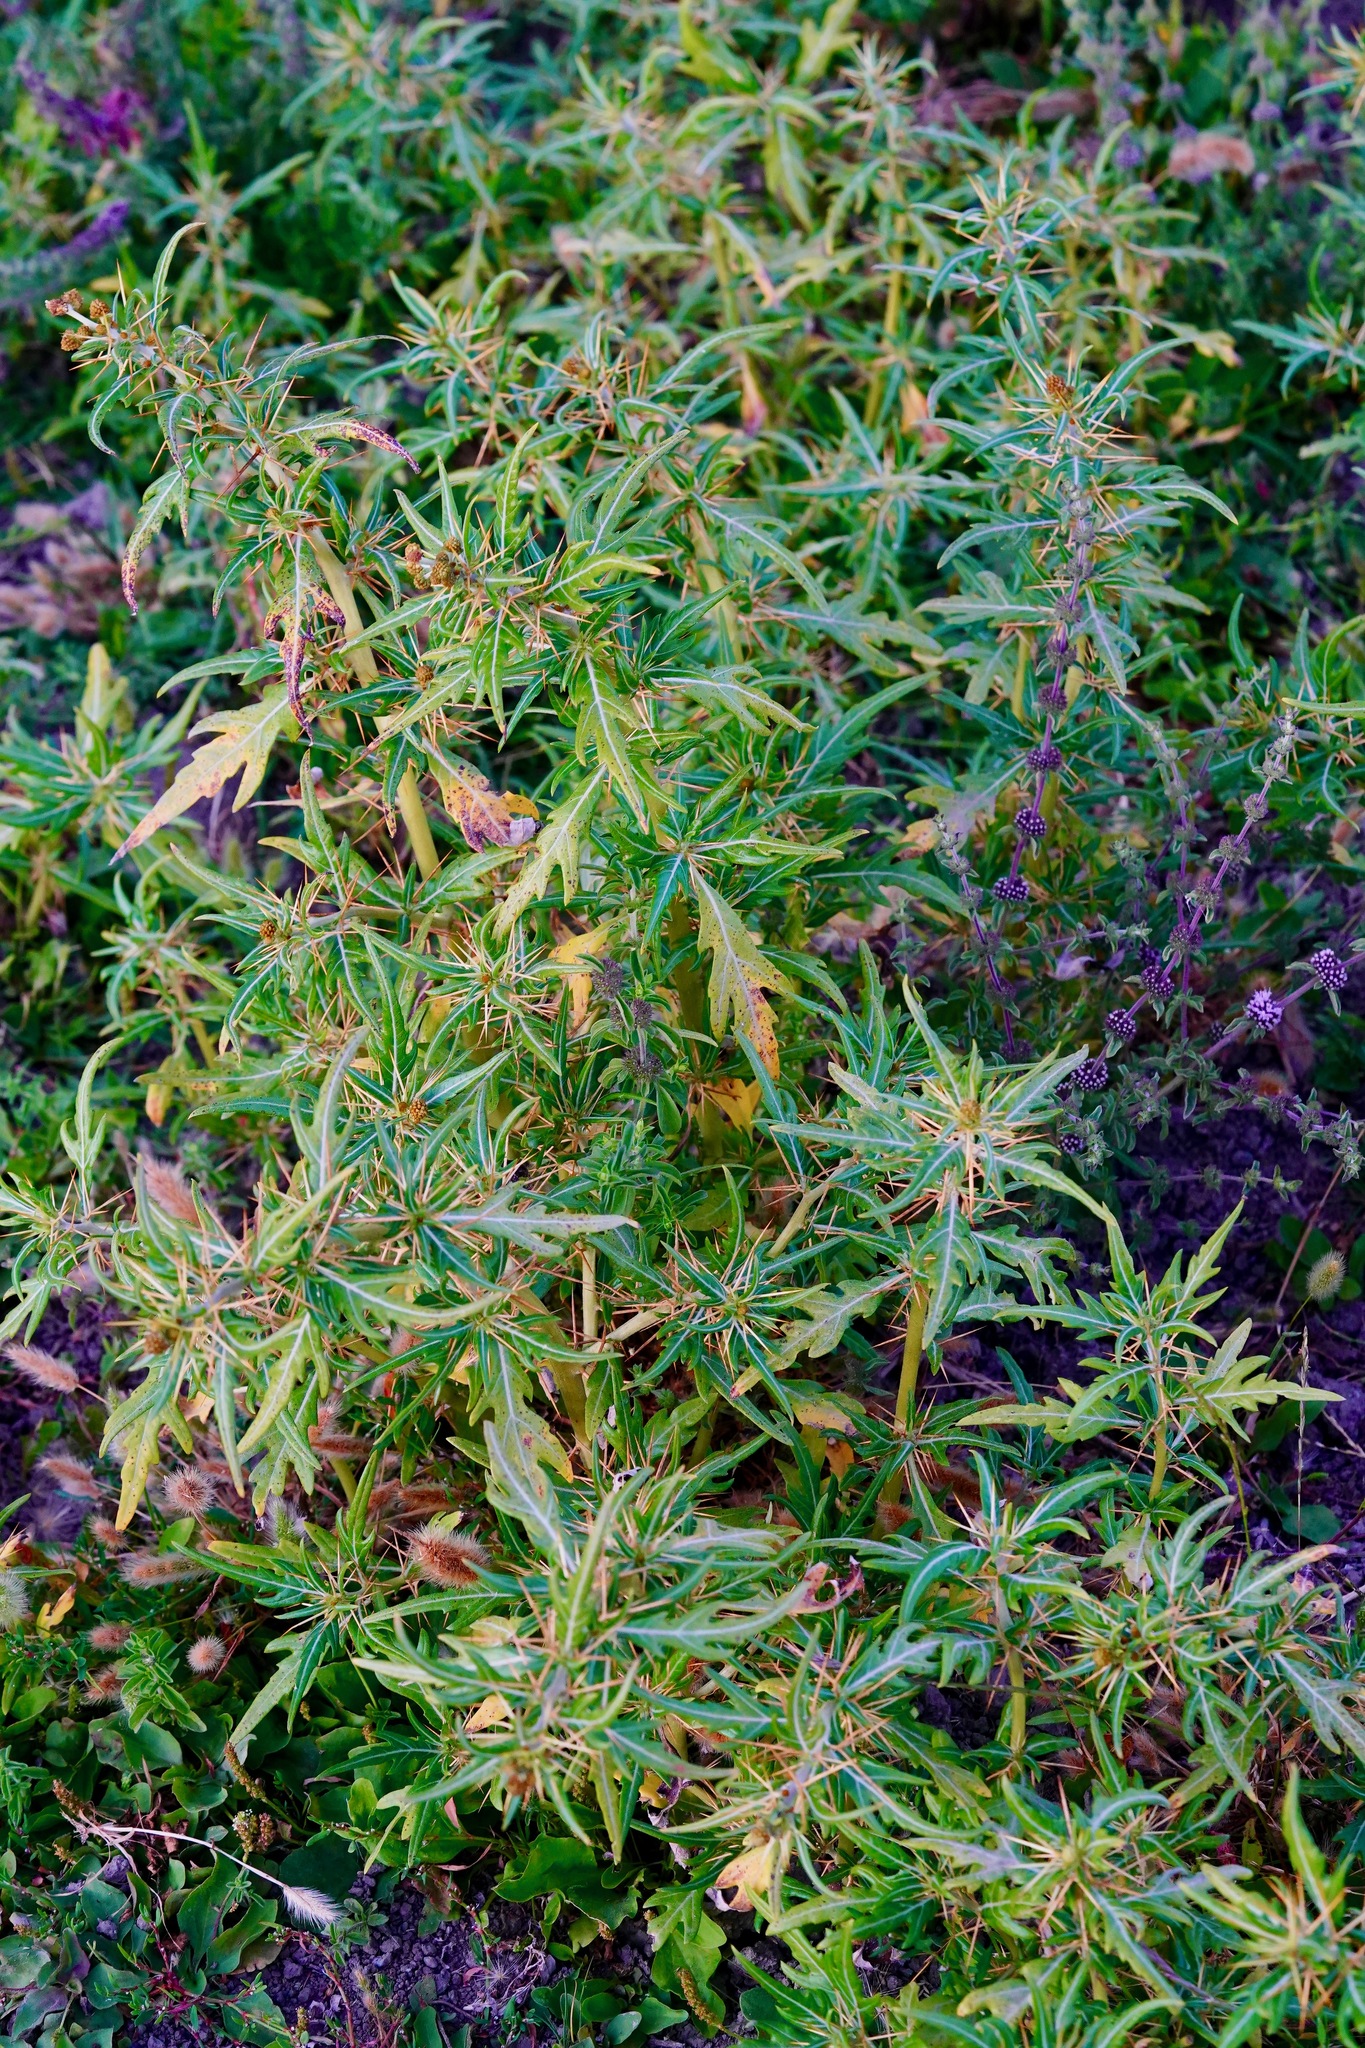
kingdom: Plantae
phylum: Tracheophyta
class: Magnoliopsida
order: Asterales
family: Asteraceae
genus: Xanthium
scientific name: Xanthium spinosum
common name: Spiny cocklebur
